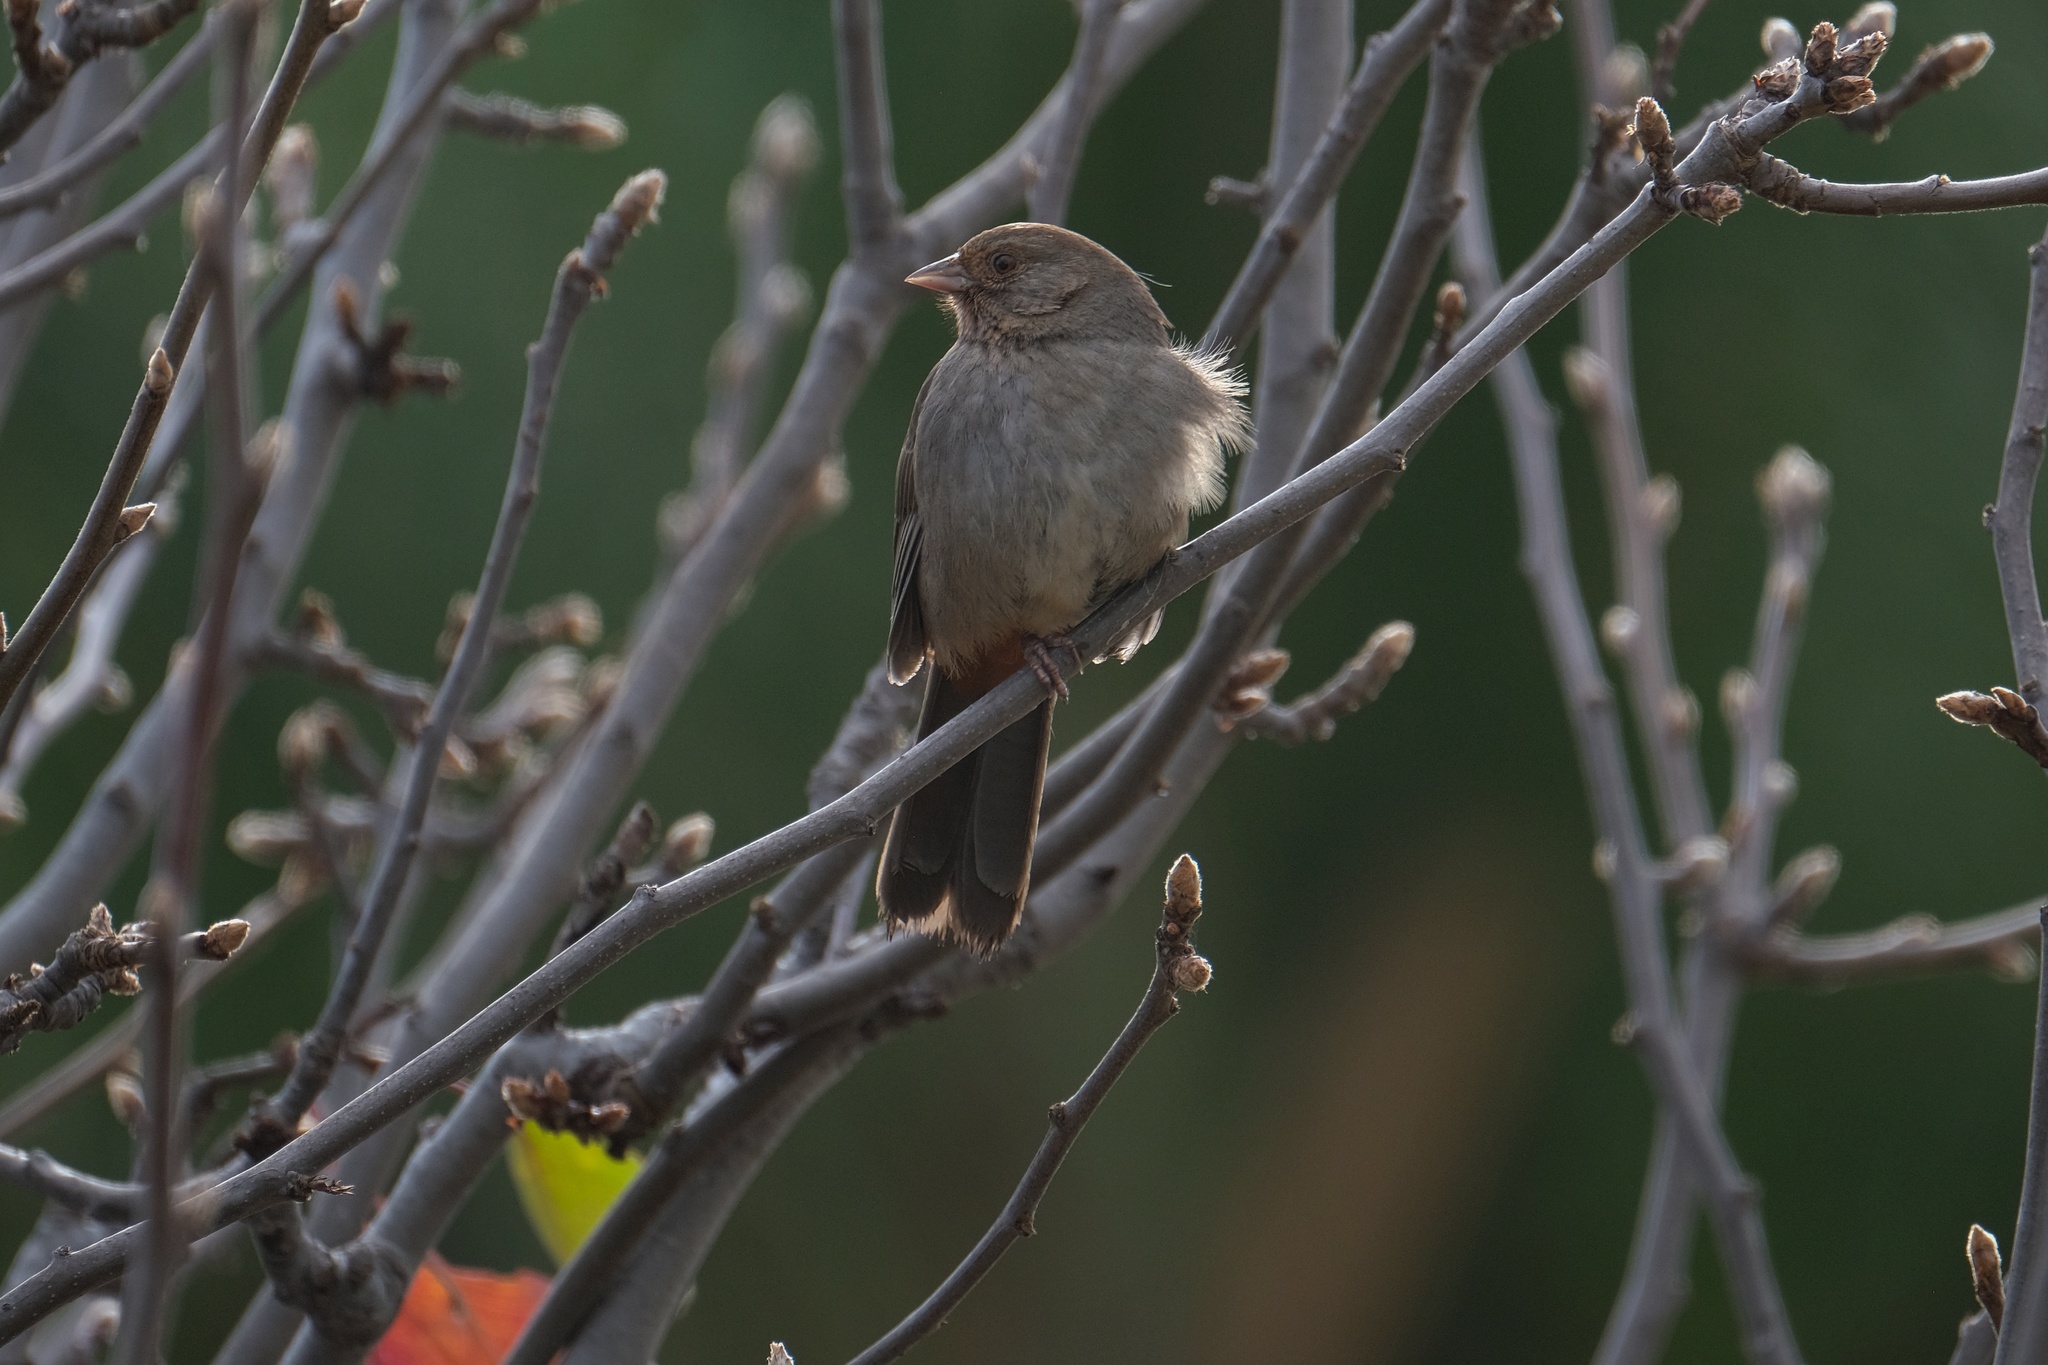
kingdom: Animalia
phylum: Chordata
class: Aves
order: Passeriformes
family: Passerellidae
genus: Melozone
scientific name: Melozone crissalis
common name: California towhee
